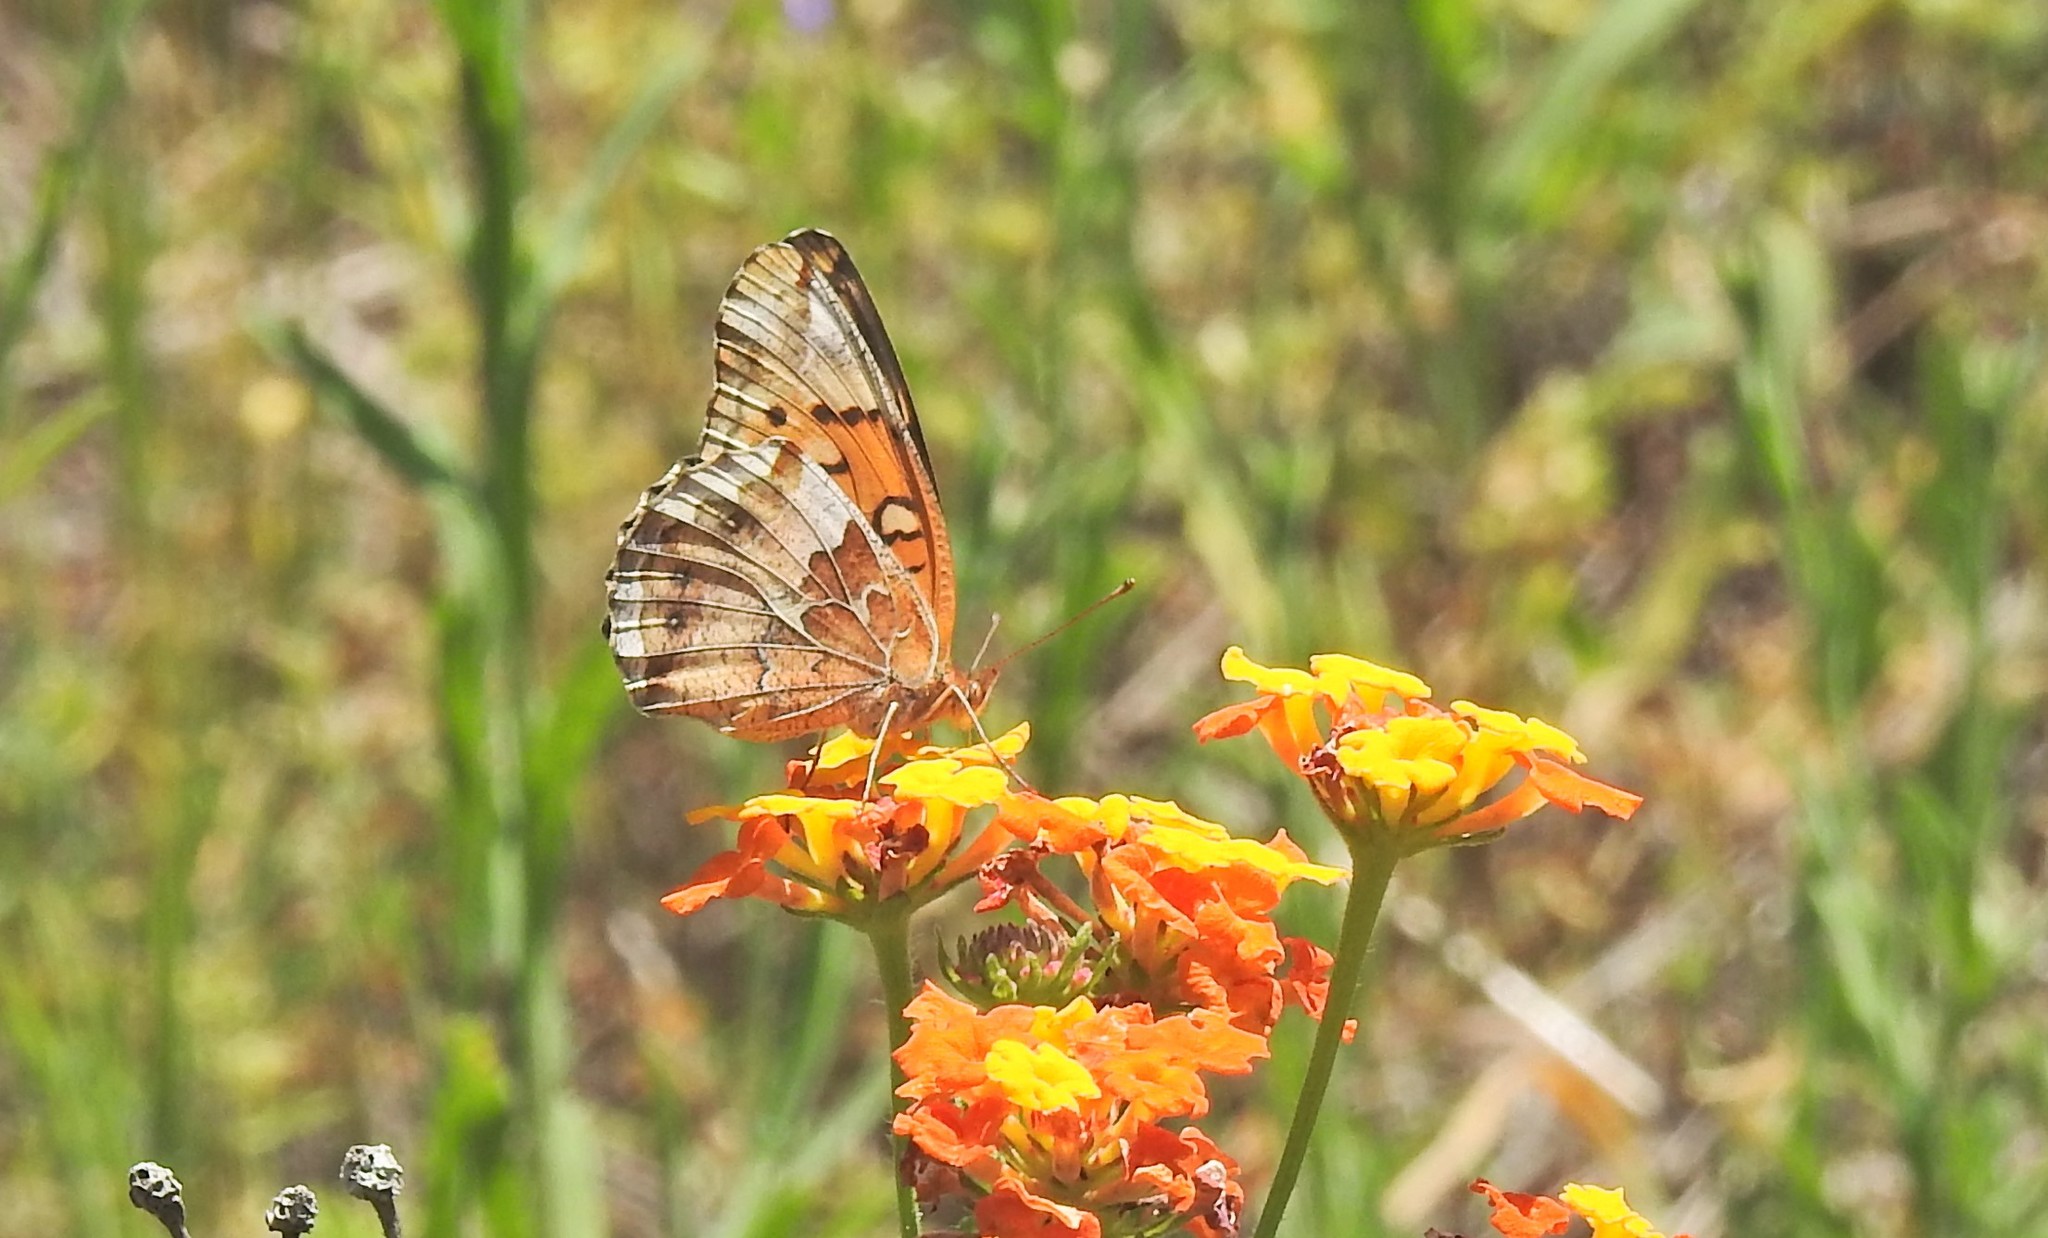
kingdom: Animalia
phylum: Arthropoda
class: Insecta
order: Lepidoptera
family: Nymphalidae
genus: Euptoieta
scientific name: Euptoieta claudia
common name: Variegated fritillary
